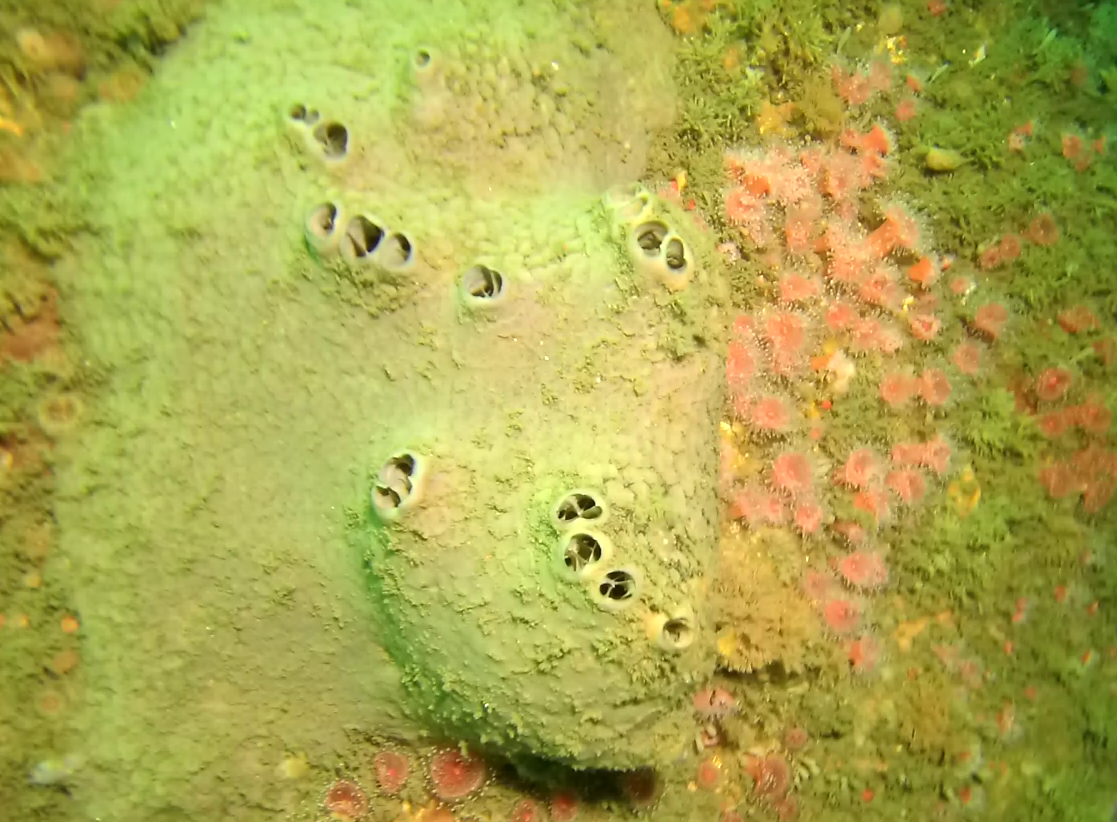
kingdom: Animalia
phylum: Porifera
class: Demospongiae
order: Clionaida
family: Clionaidae
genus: Spheciospongia
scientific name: Spheciospongia confoederata
